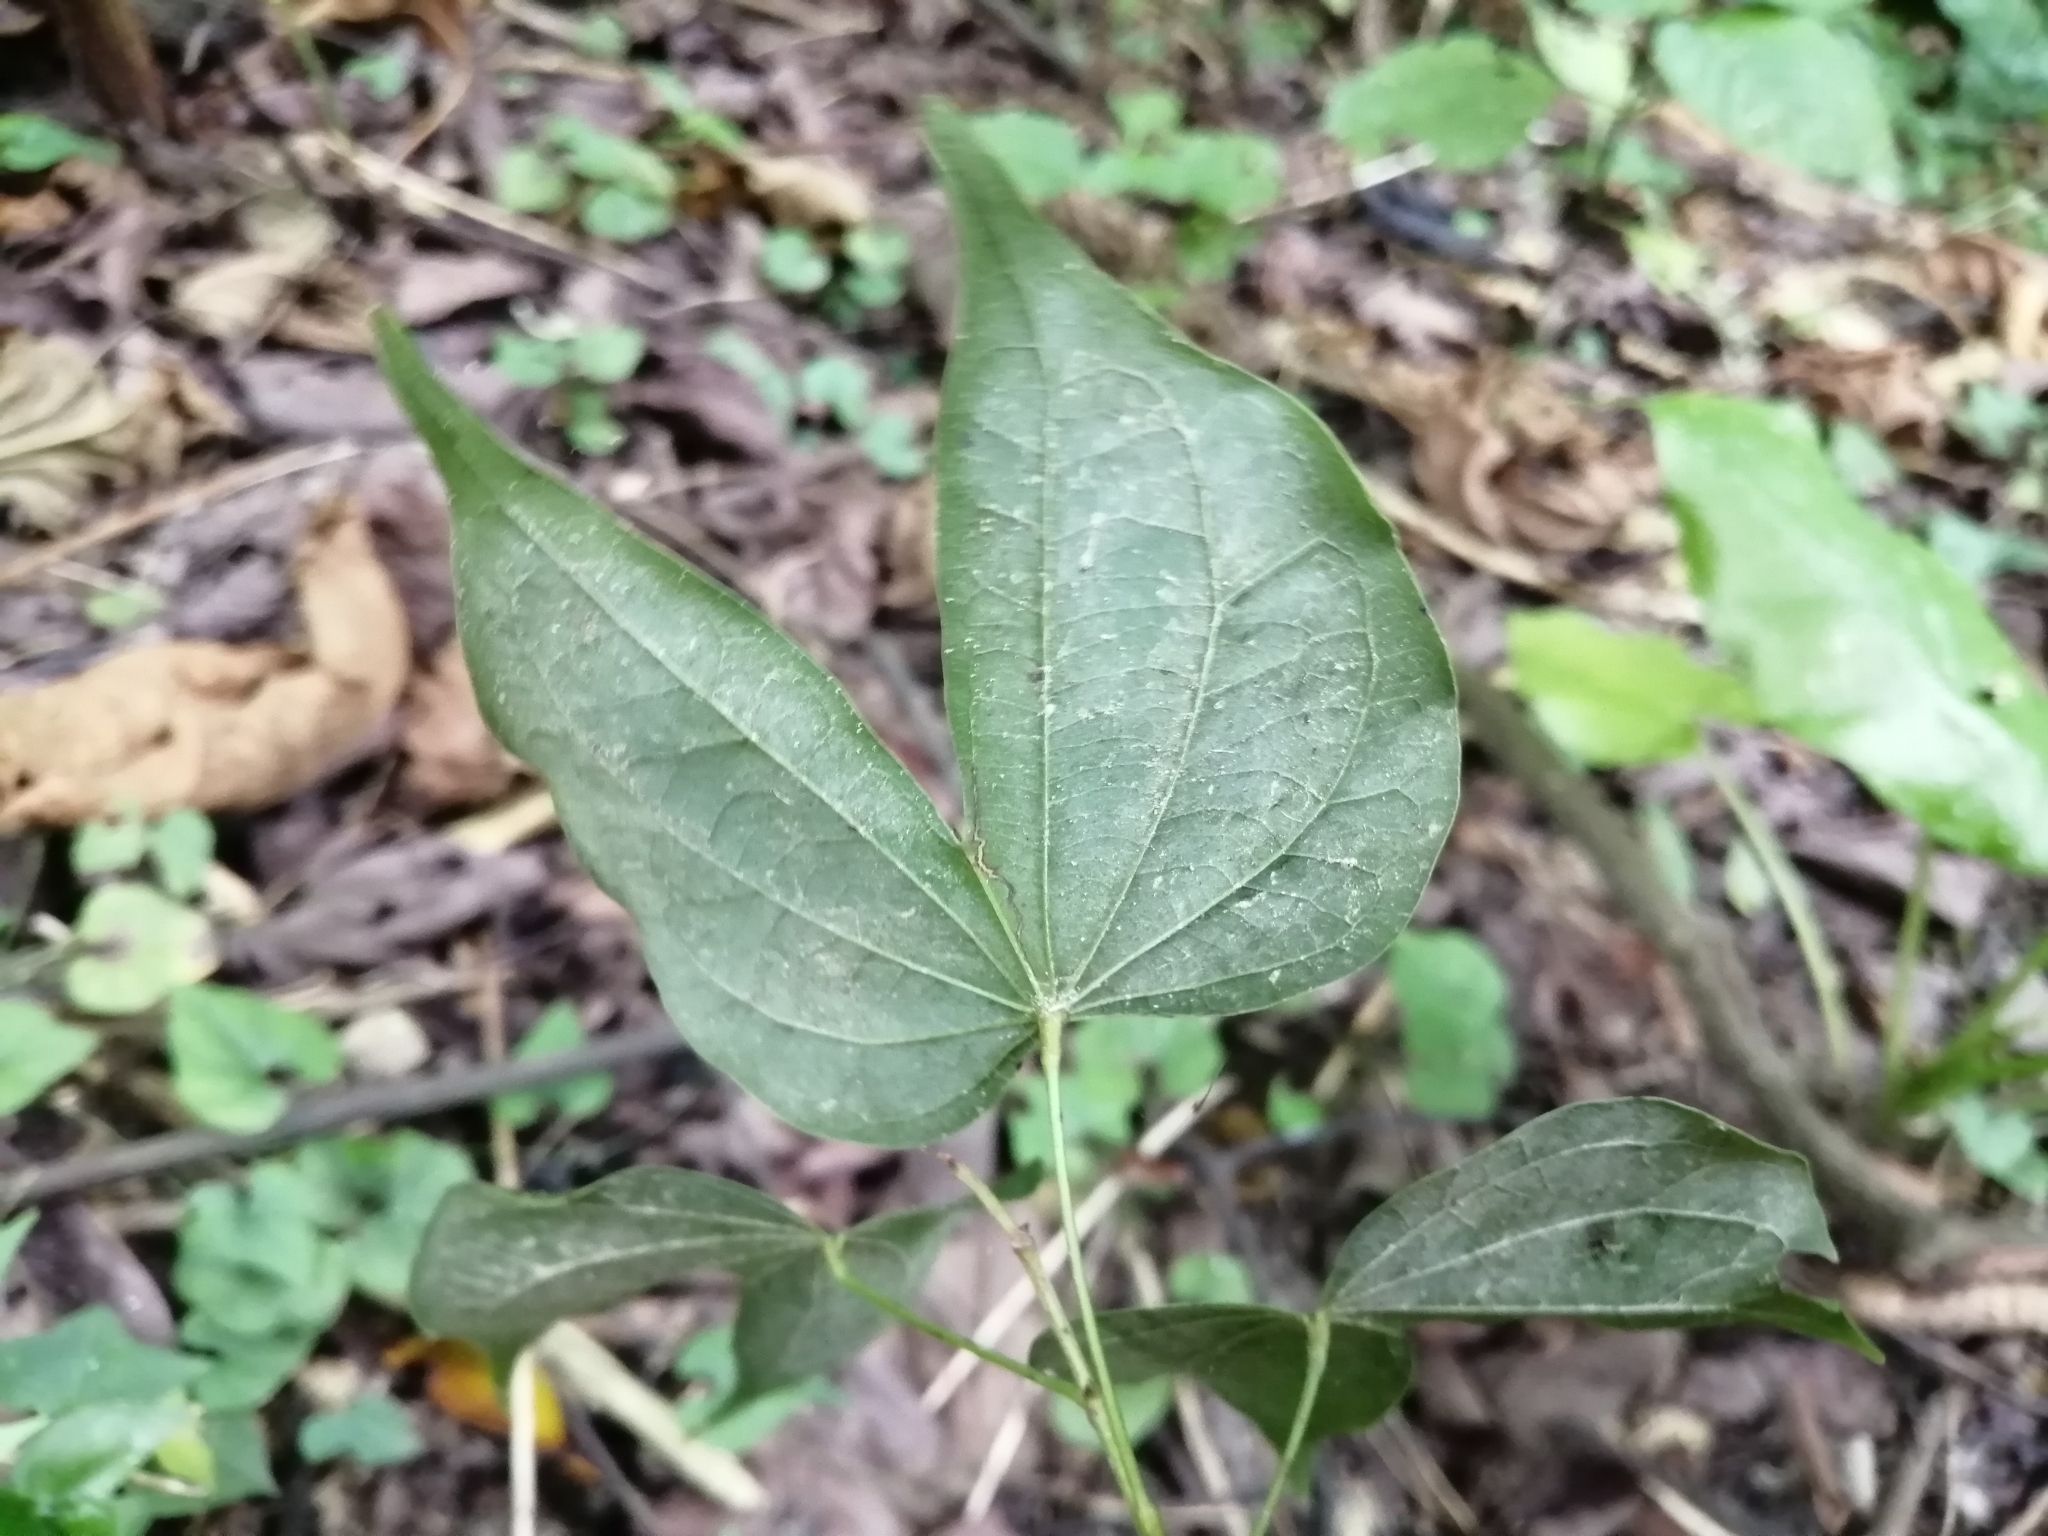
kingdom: Plantae
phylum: Tracheophyta
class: Magnoliopsida
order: Fabales
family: Fabaceae
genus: Phanera
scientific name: Phanera championii
